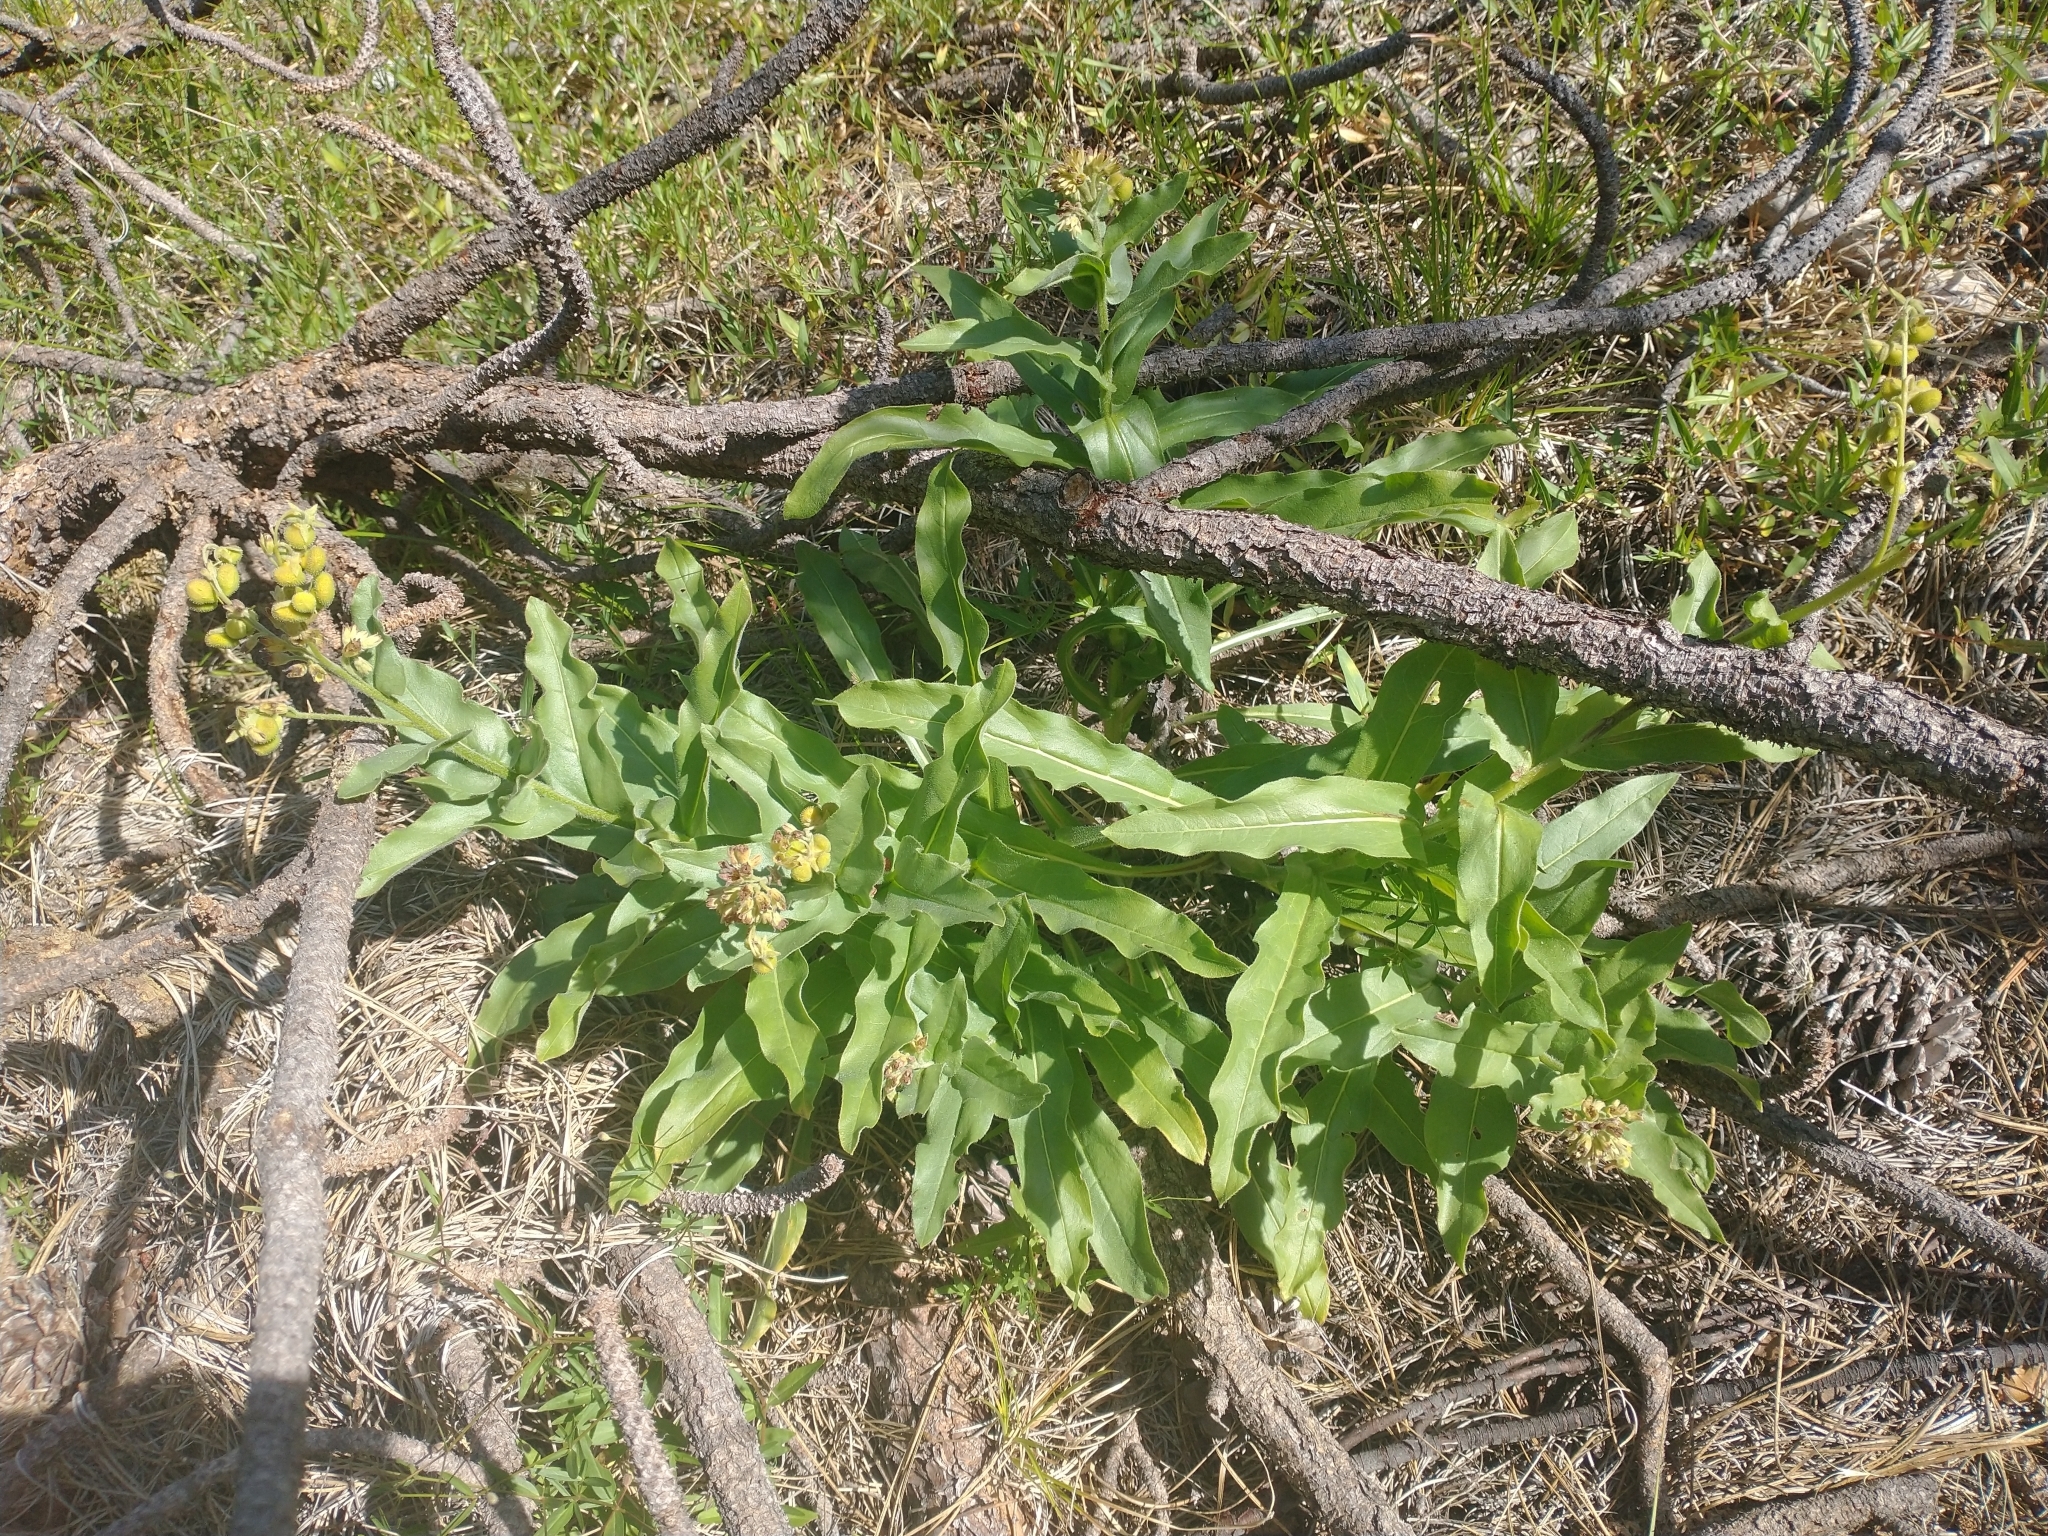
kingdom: Plantae
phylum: Tracheophyta
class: Magnoliopsida
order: Boraginales
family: Boraginaceae
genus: Andersonglossum
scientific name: Andersonglossum occidentale
